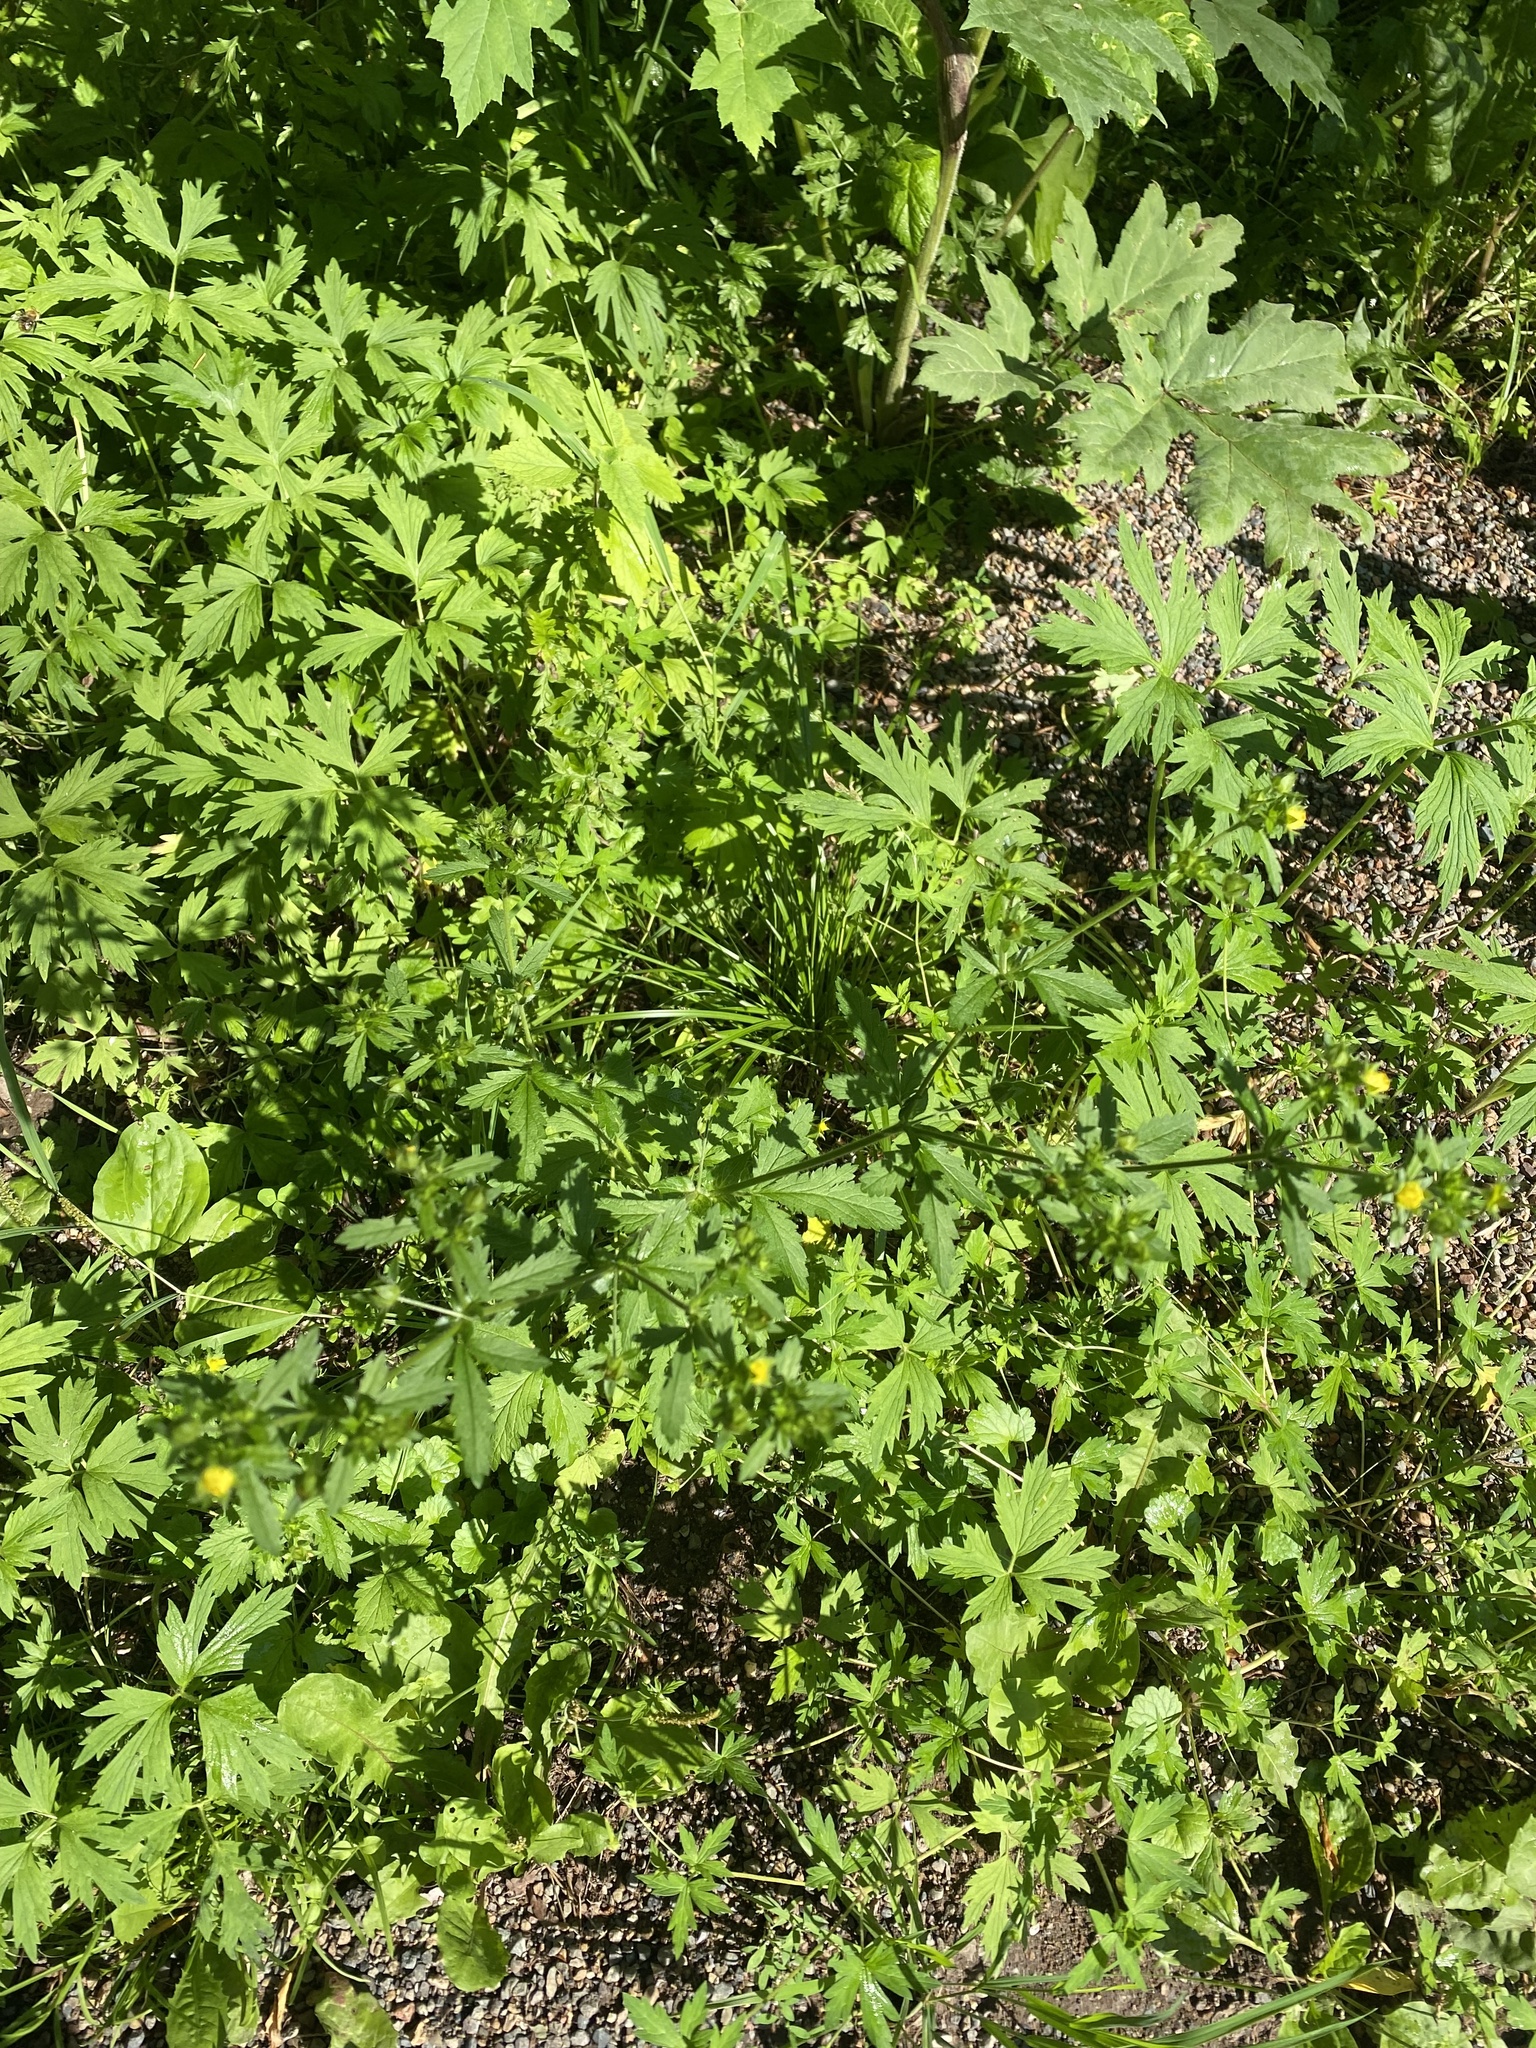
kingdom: Plantae
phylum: Tracheophyta
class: Magnoliopsida
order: Rosales
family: Rosaceae
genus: Potentilla
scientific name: Potentilla norvegica
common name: Ternate-leaved cinquefoil
